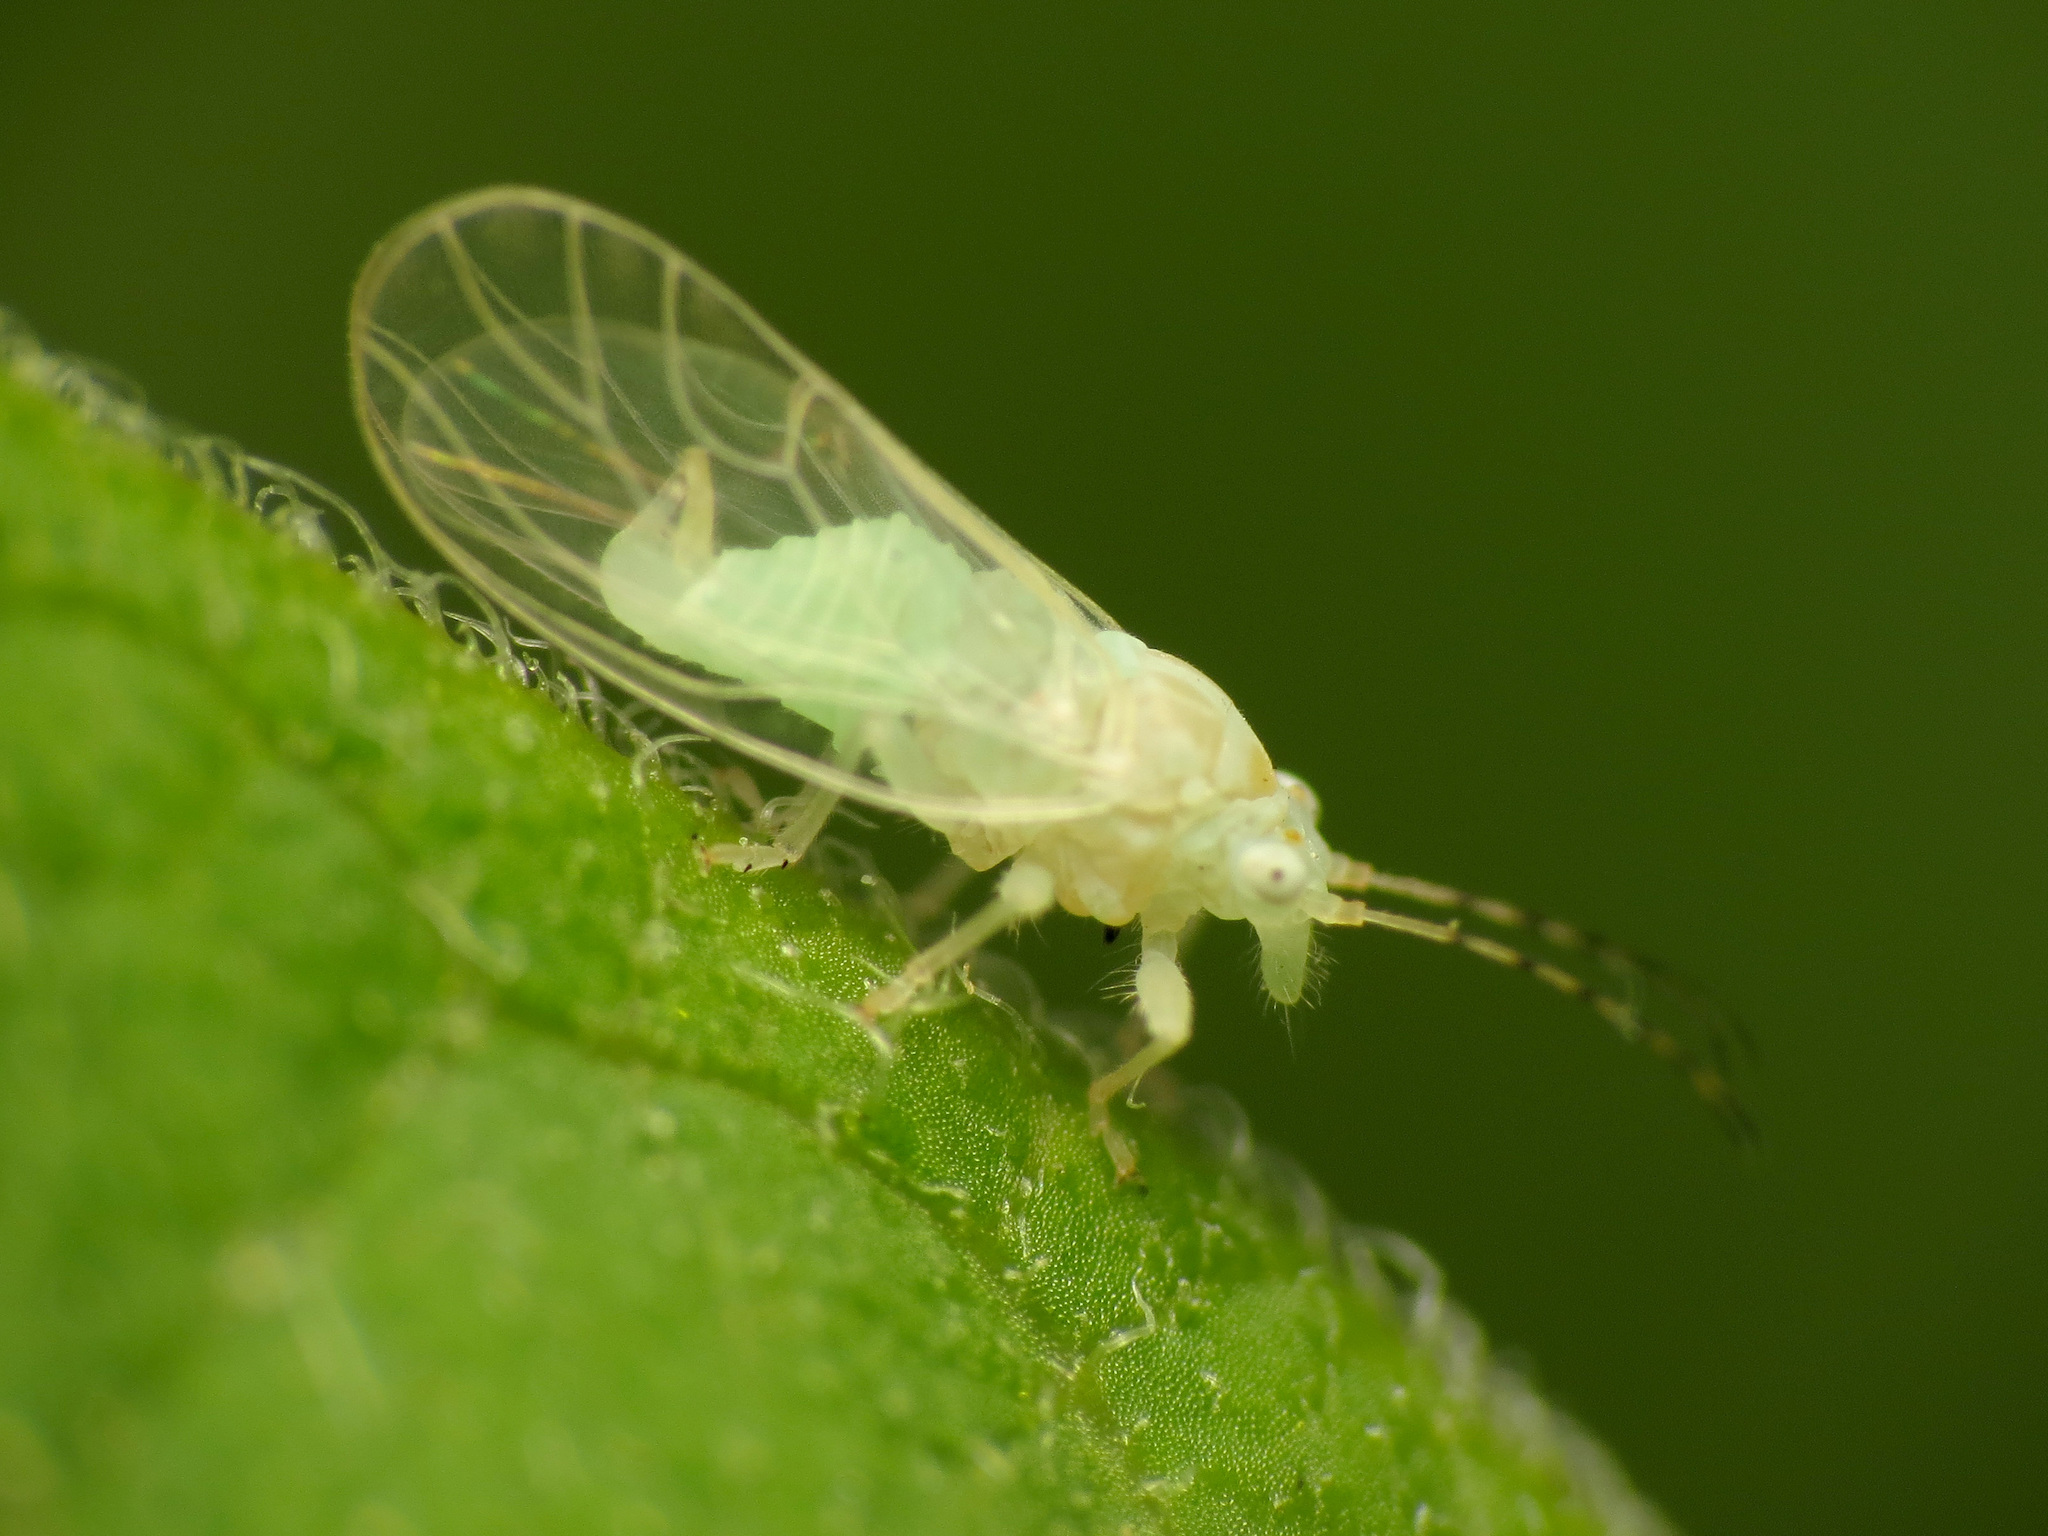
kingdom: Animalia
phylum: Arthropoda
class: Insecta
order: Hemiptera
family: Psyllidae
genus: Cacopsylla
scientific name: Cacopsylla annulata
